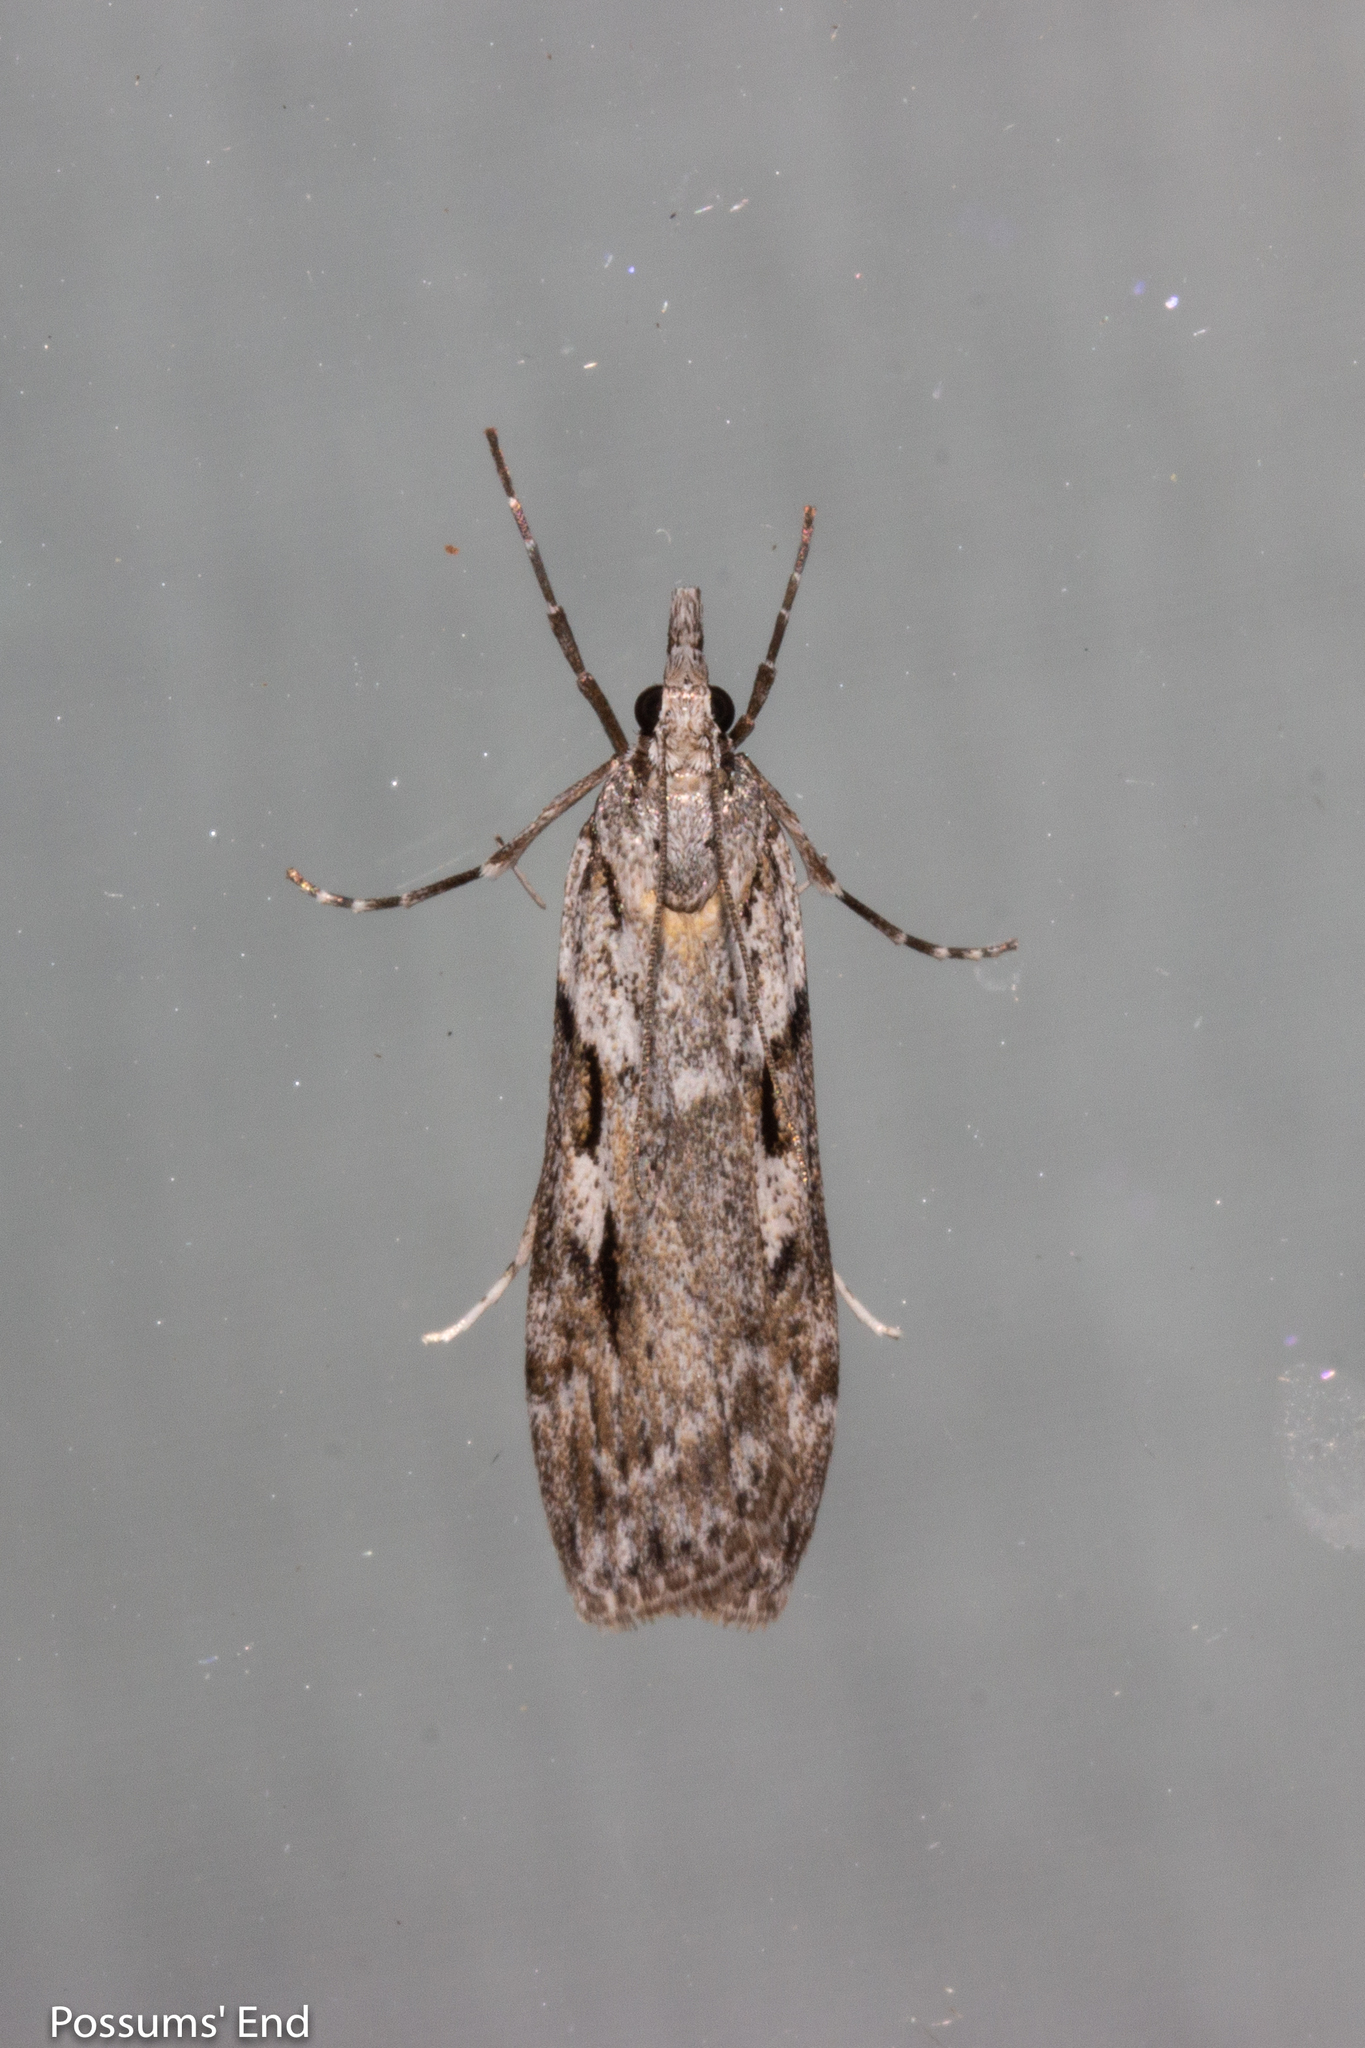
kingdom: Animalia
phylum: Arthropoda
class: Insecta
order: Lepidoptera
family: Crambidae
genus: Scoparia
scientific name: Scoparia halopis
